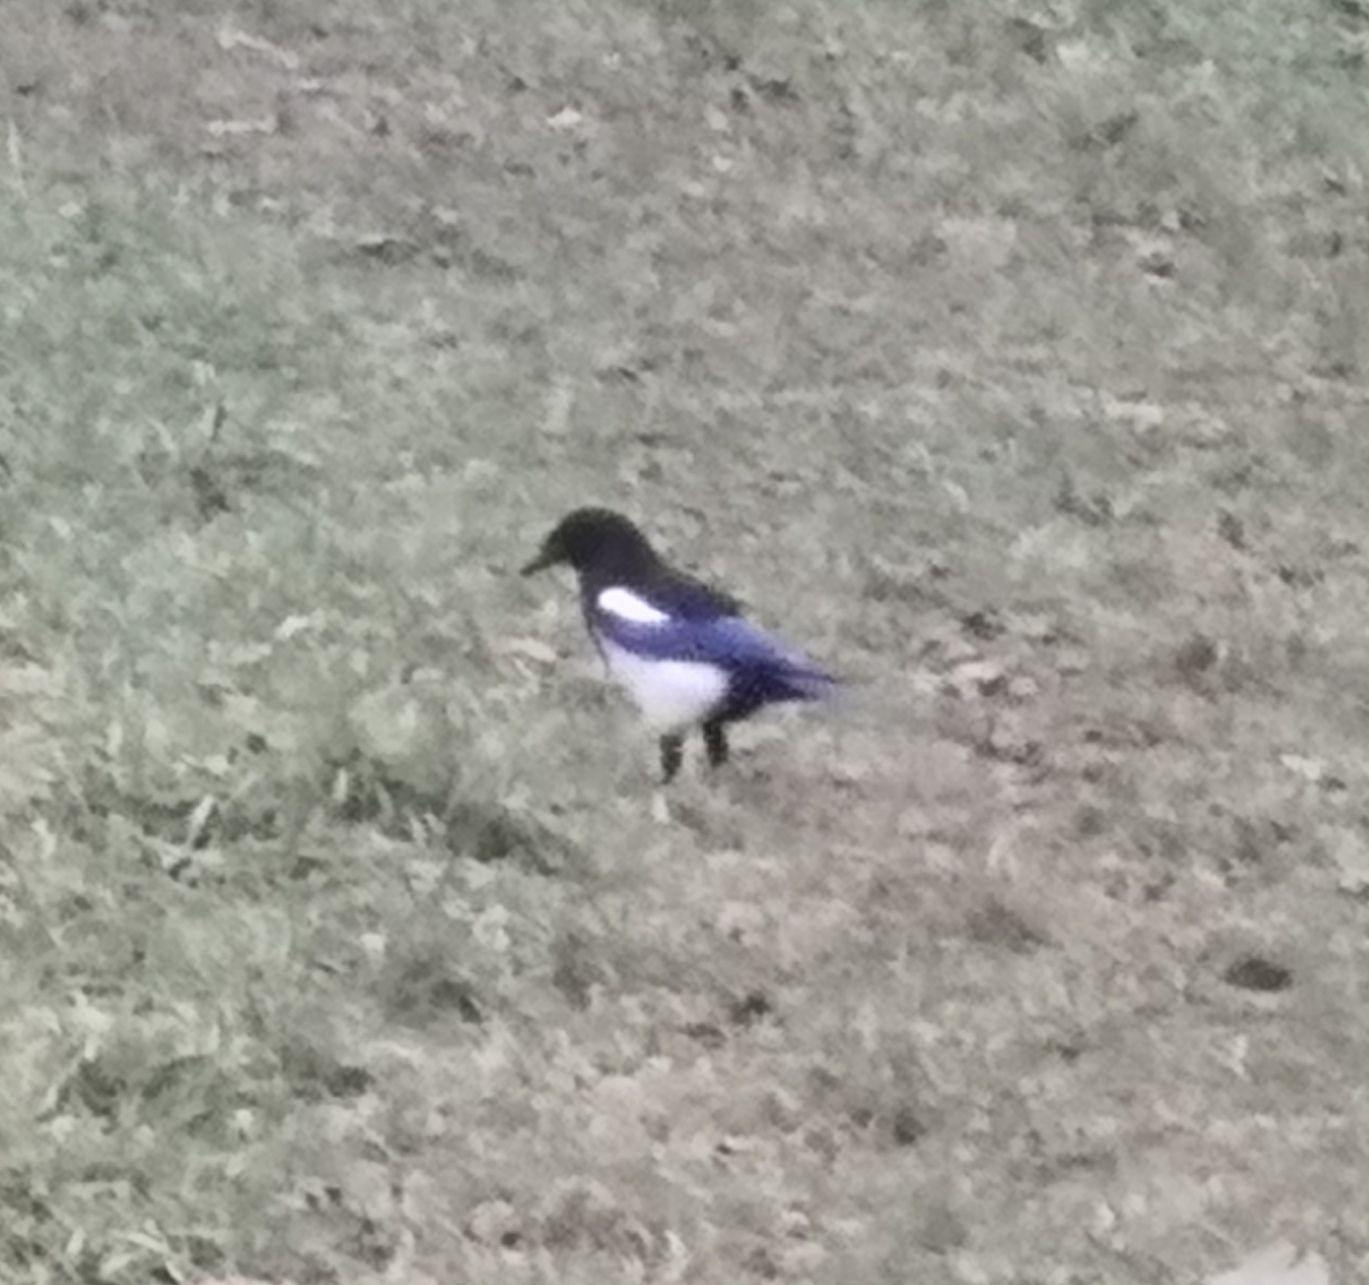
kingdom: Animalia
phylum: Chordata
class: Aves
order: Passeriformes
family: Corvidae
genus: Pica
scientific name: Pica pica
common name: Eurasian magpie
